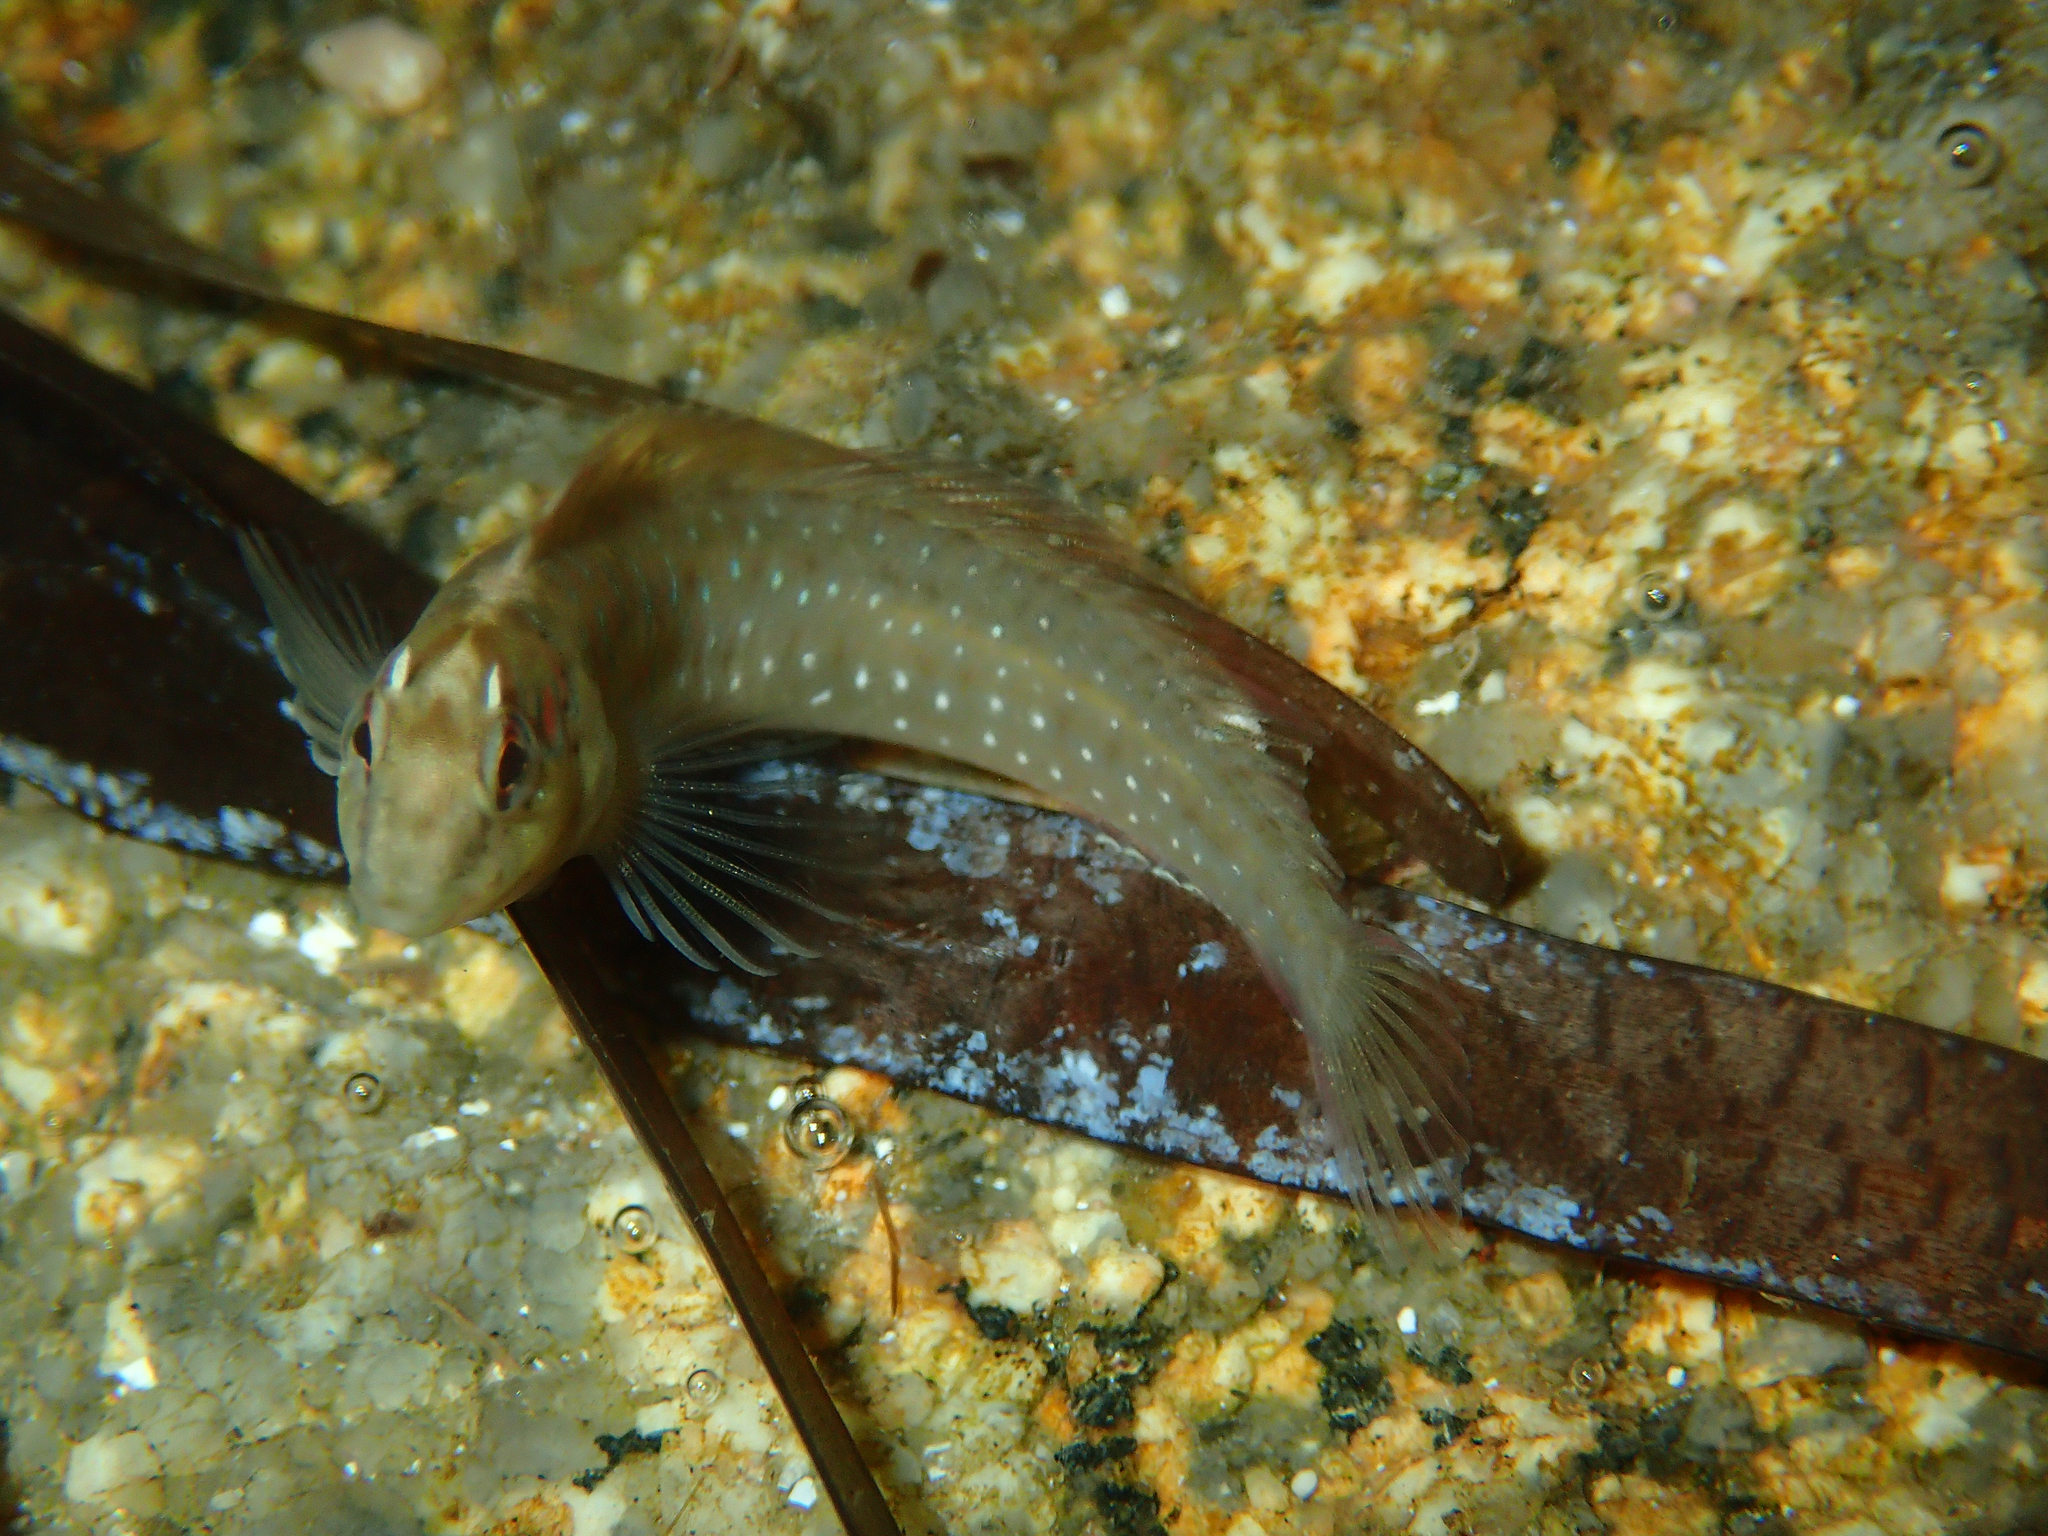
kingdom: Animalia
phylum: Chordata
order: Perciformes
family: Blenniidae
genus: Salaria
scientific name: Salaria pavo
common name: Peacock blenny
